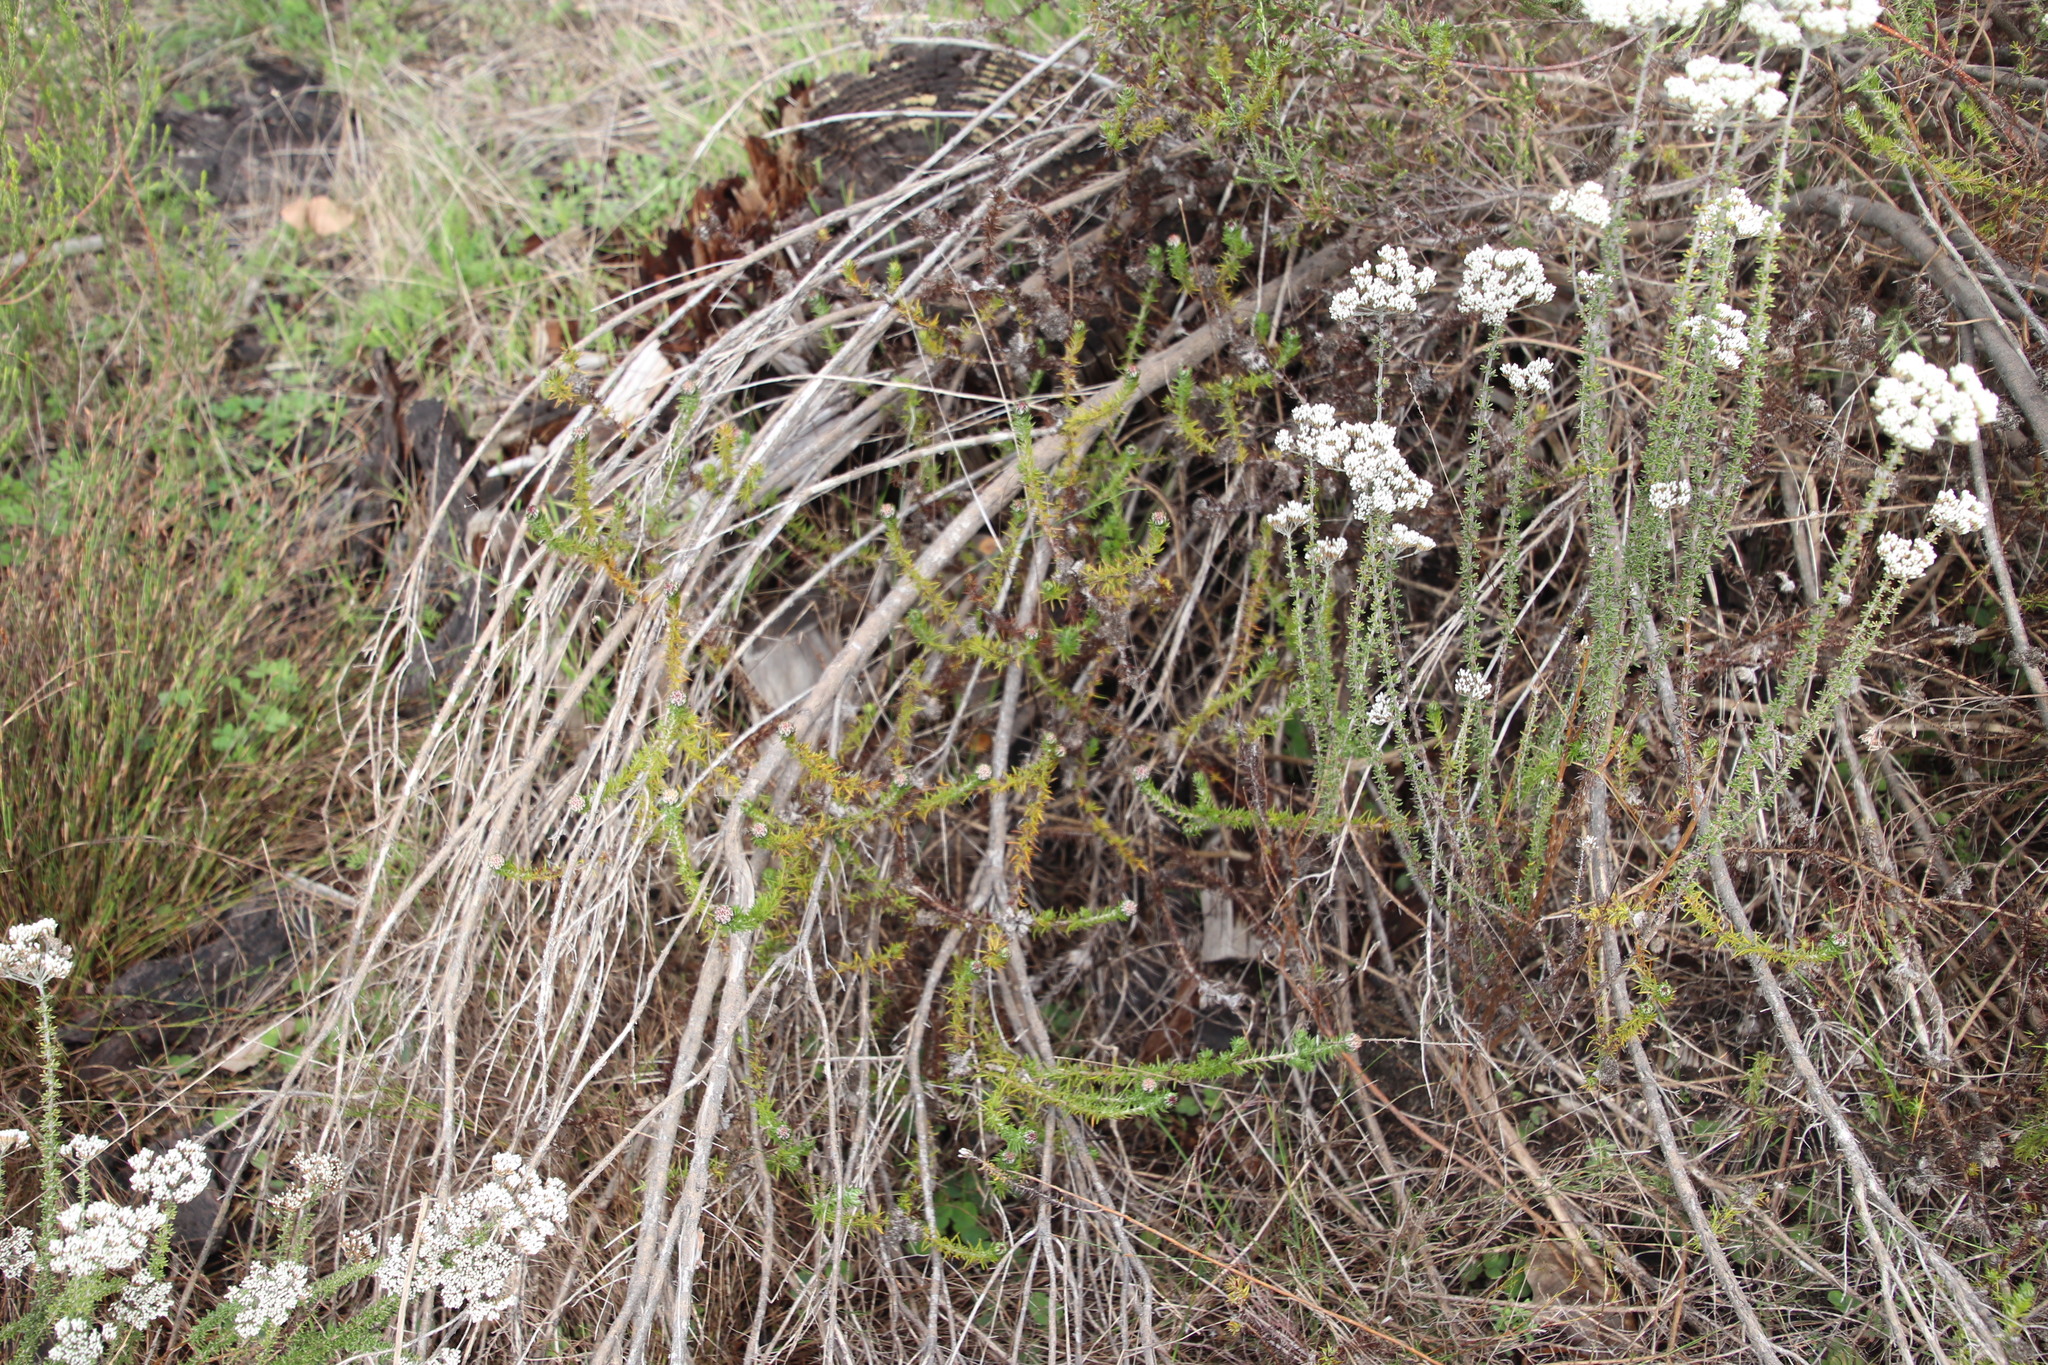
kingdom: Plantae
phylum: Tracheophyta
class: Magnoliopsida
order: Asterales
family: Asteraceae
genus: Metalasia
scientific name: Metalasia pulchella
